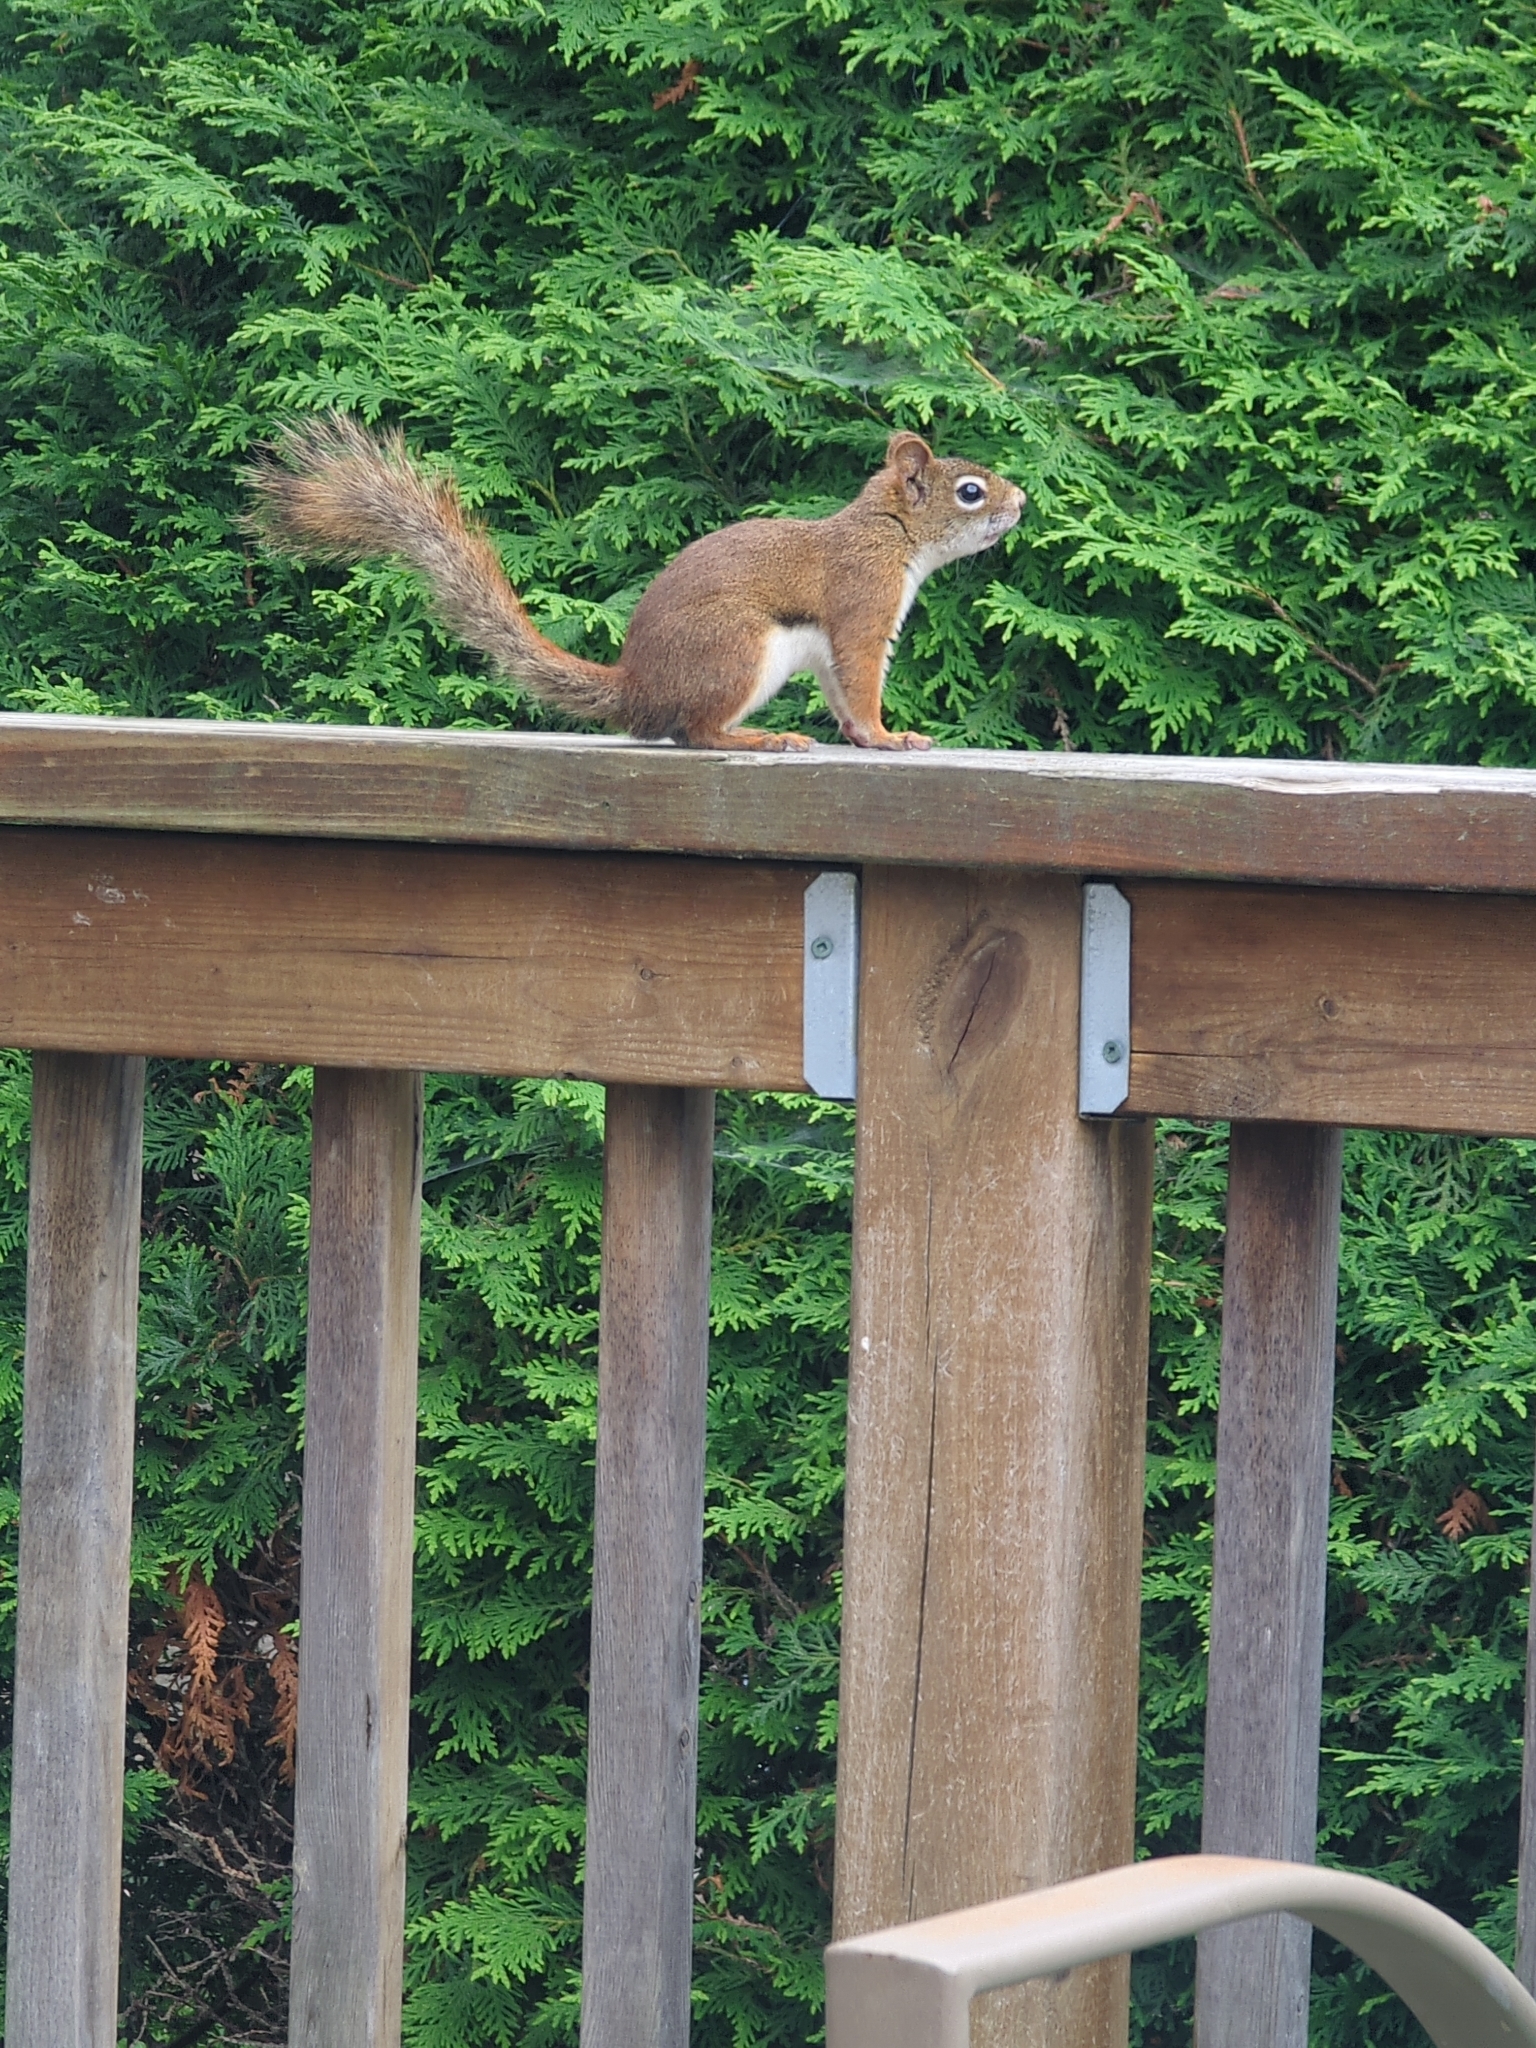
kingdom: Animalia
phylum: Chordata
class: Mammalia
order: Rodentia
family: Sciuridae
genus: Tamiasciurus
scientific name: Tamiasciurus hudsonicus
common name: Red squirrel
